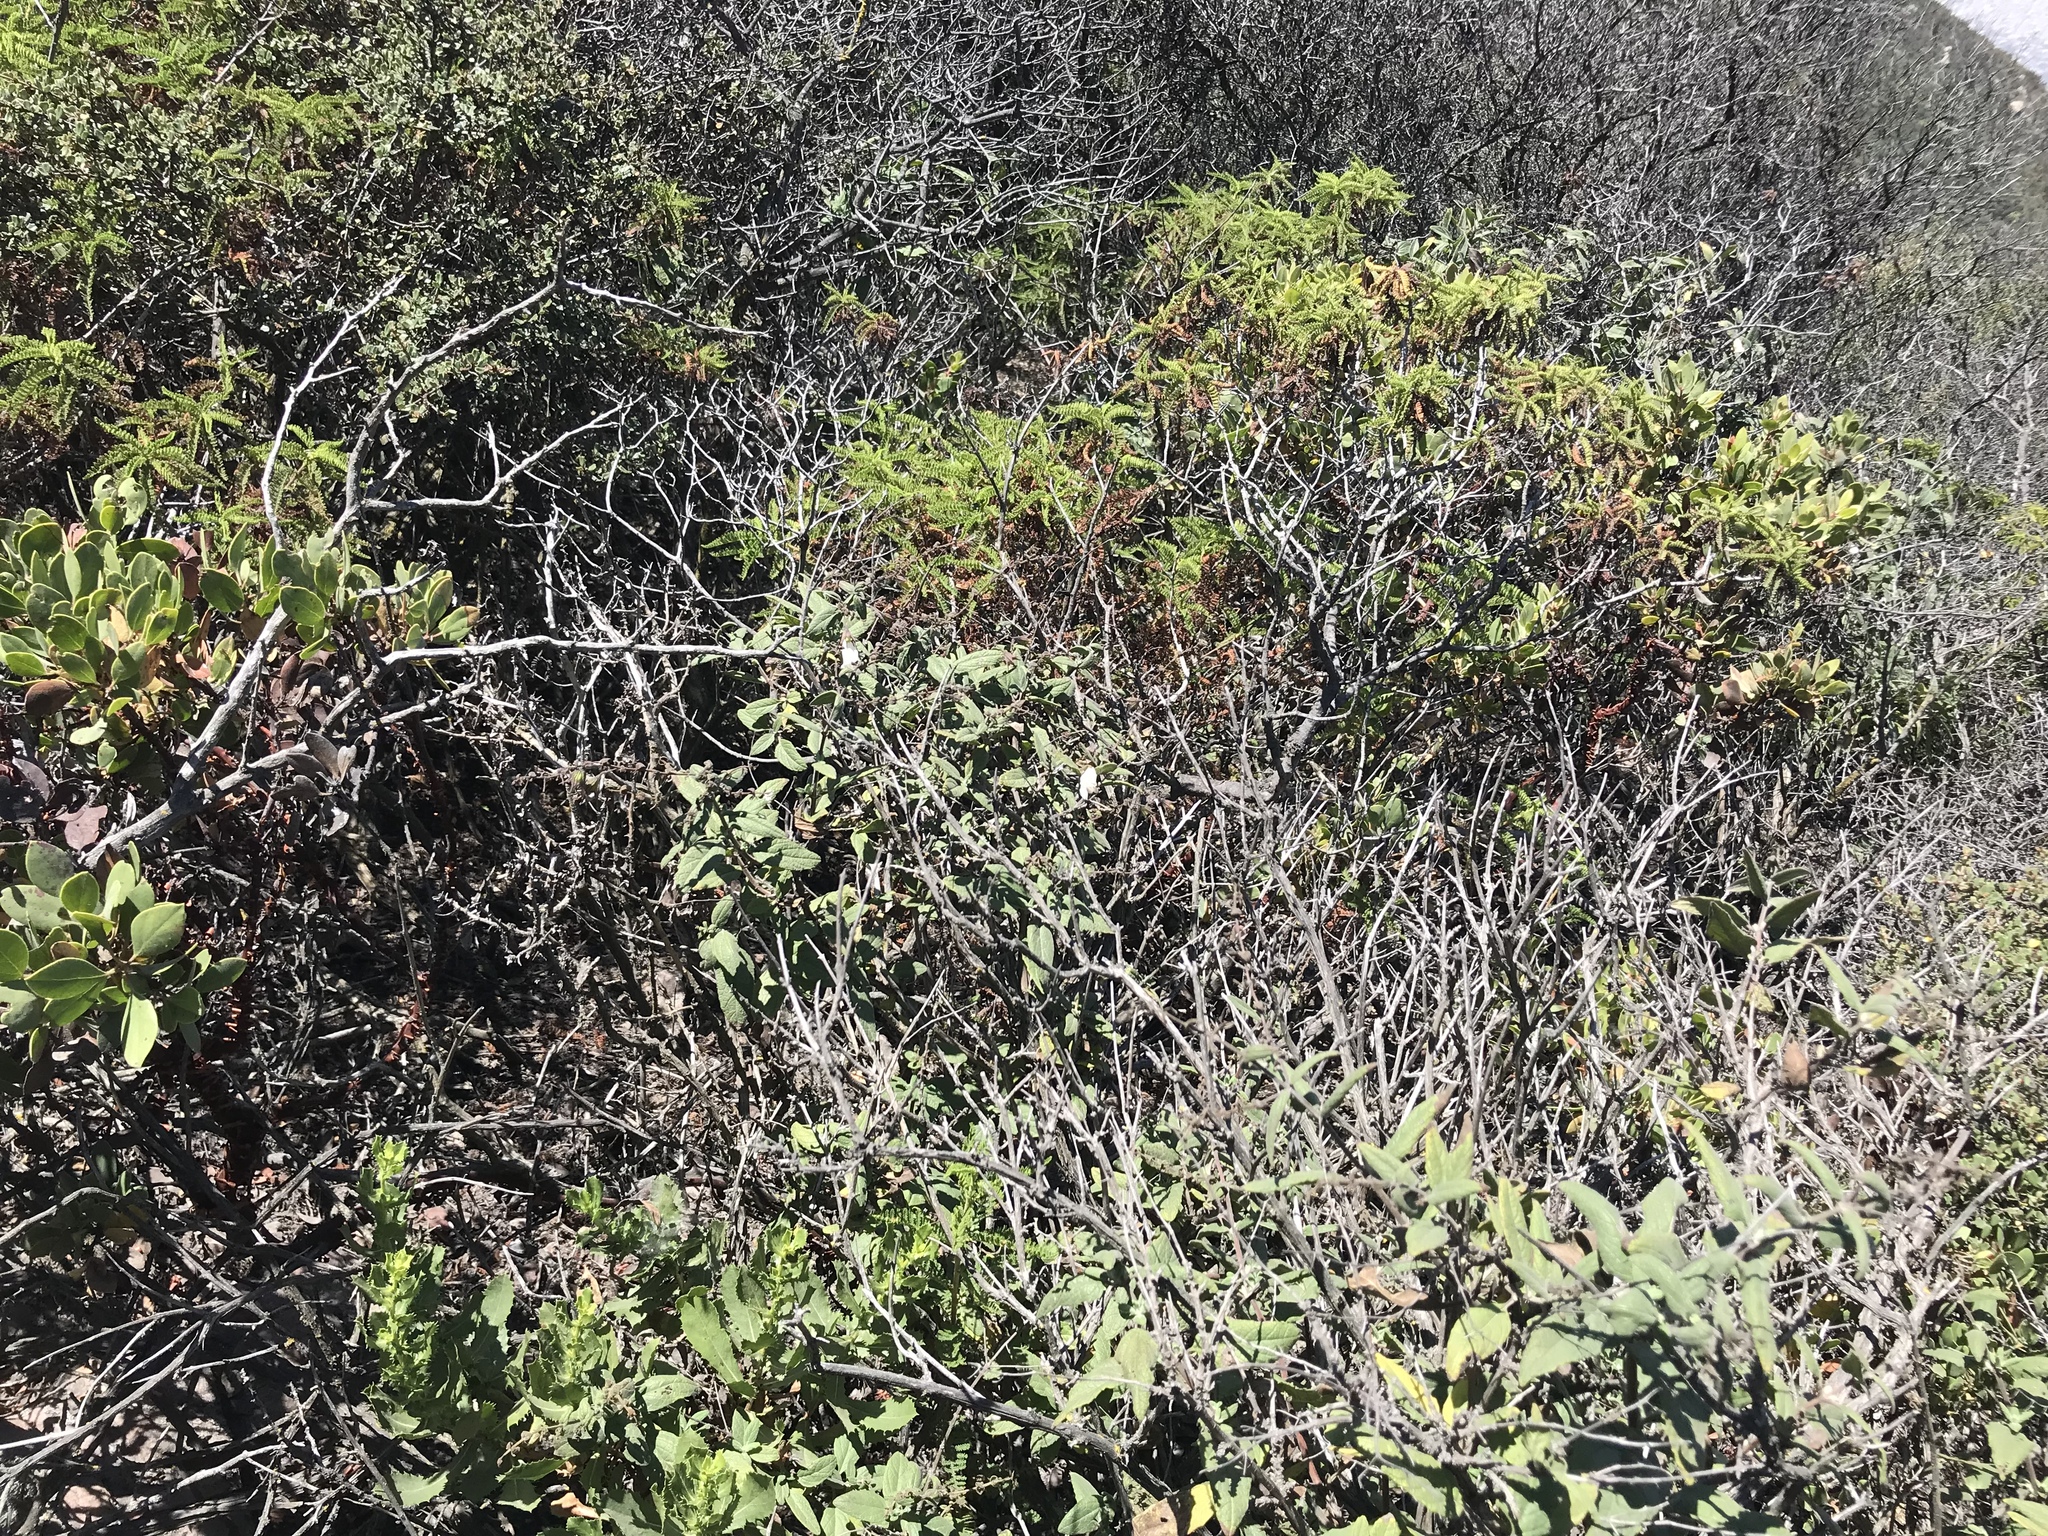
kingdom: Plantae
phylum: Tracheophyta
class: Magnoliopsida
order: Lamiales
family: Lamiaceae
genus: Lepechinia
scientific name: Lepechinia ganderi
